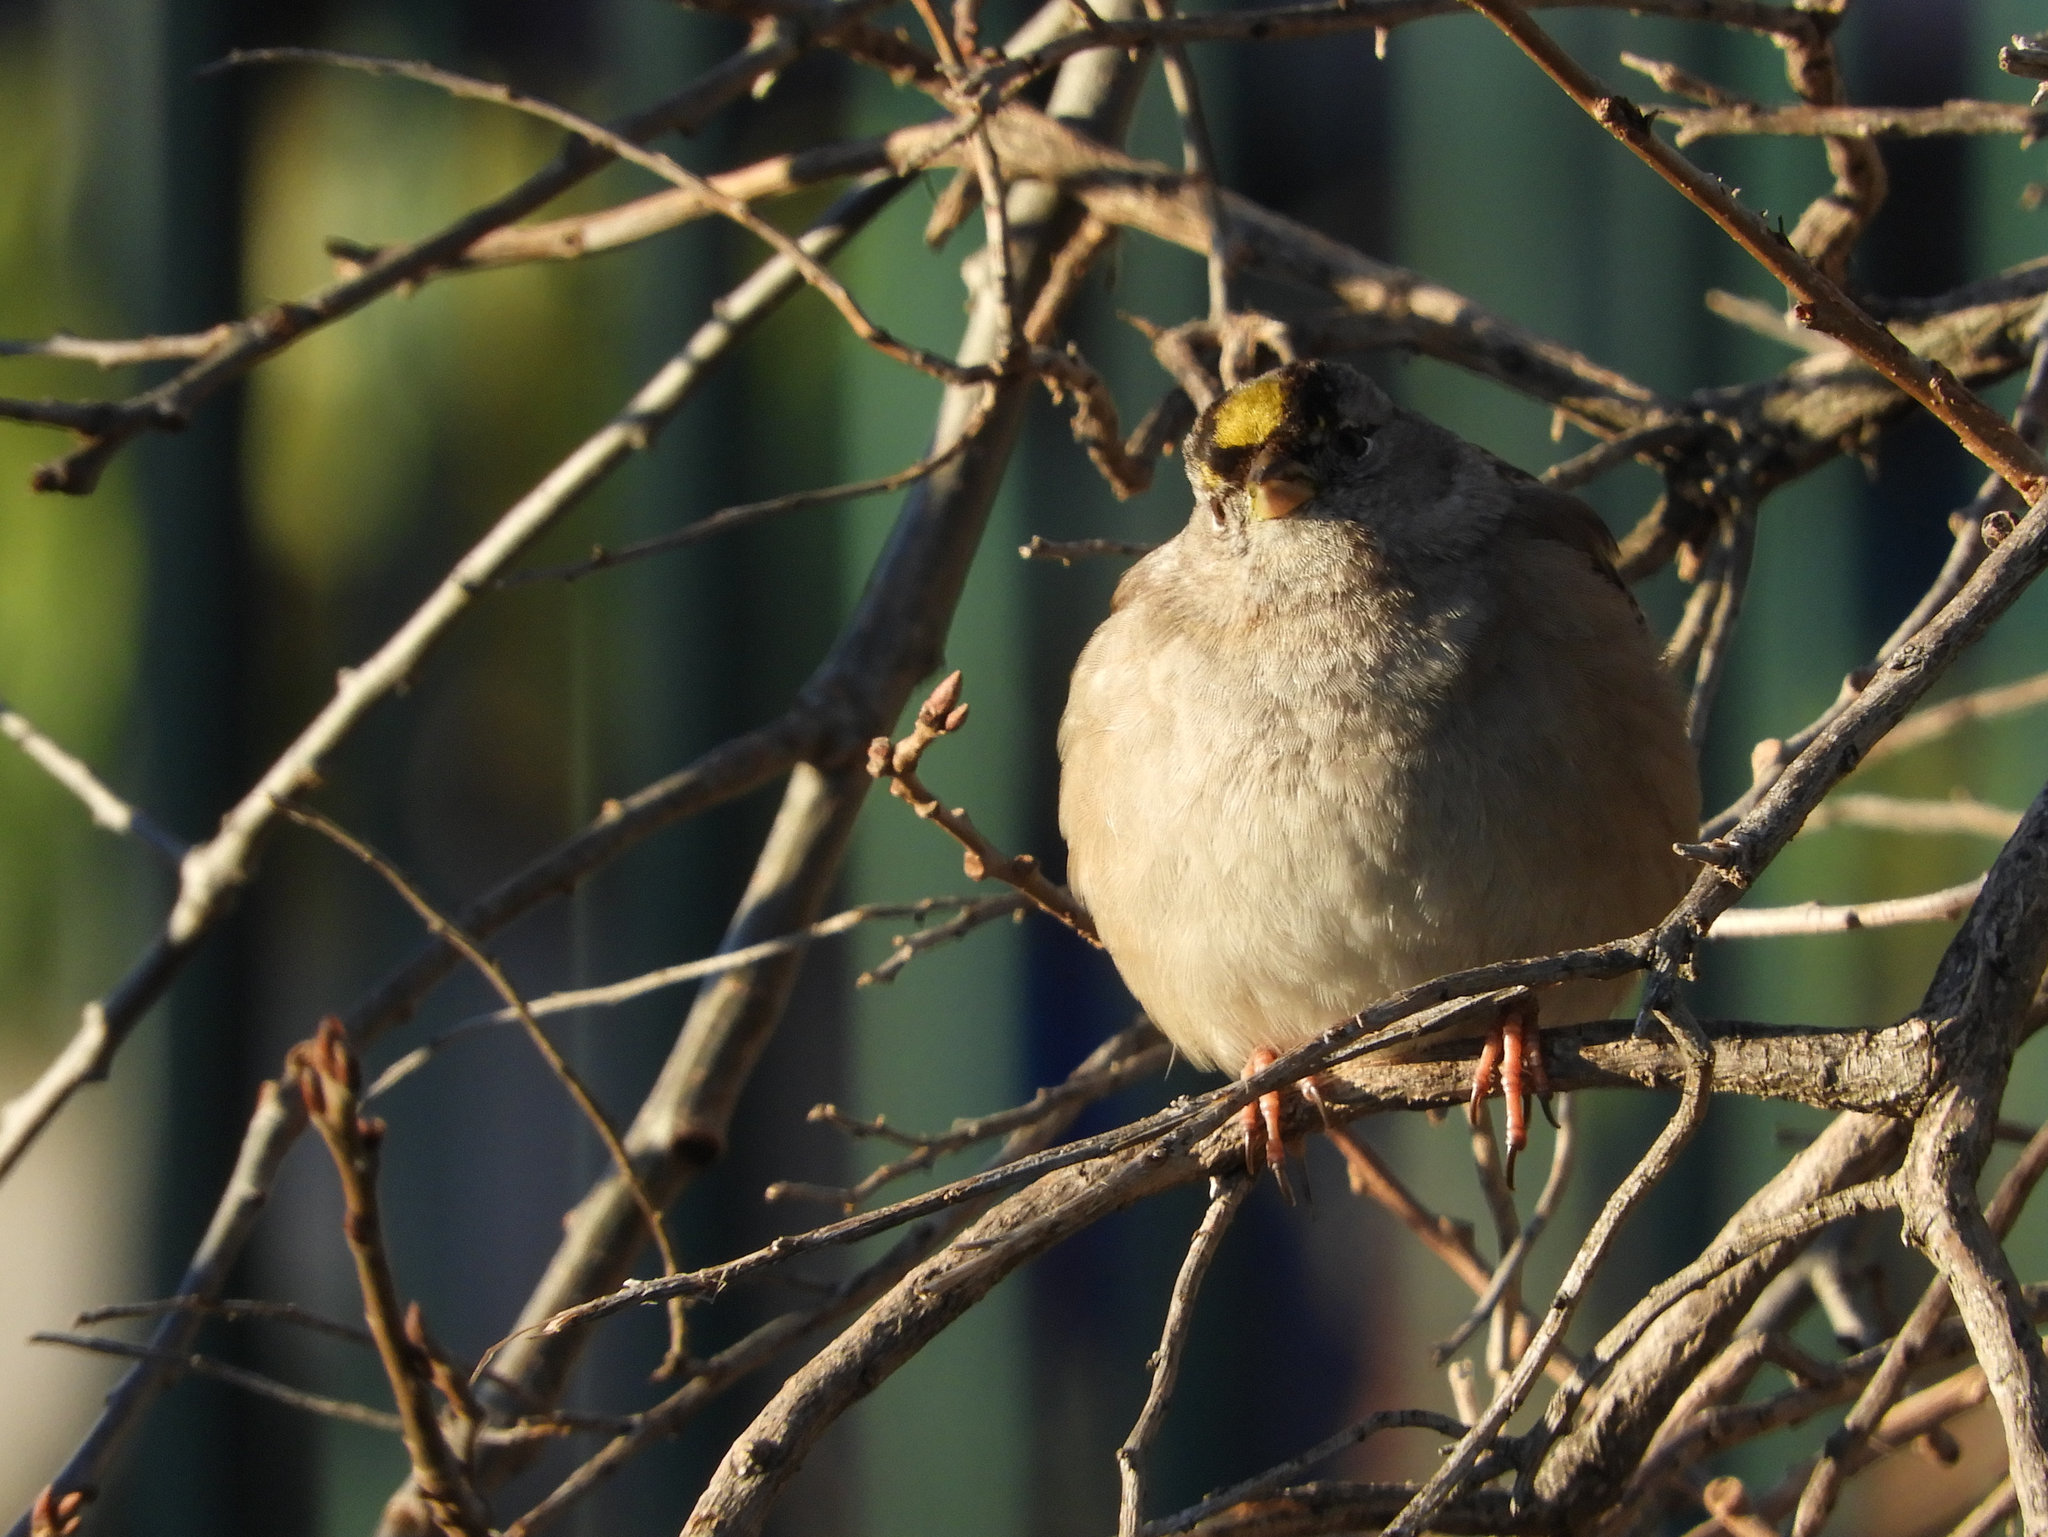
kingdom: Animalia
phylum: Chordata
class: Aves
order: Passeriformes
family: Passerellidae
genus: Zonotrichia
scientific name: Zonotrichia atricapilla
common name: Golden-crowned sparrow
